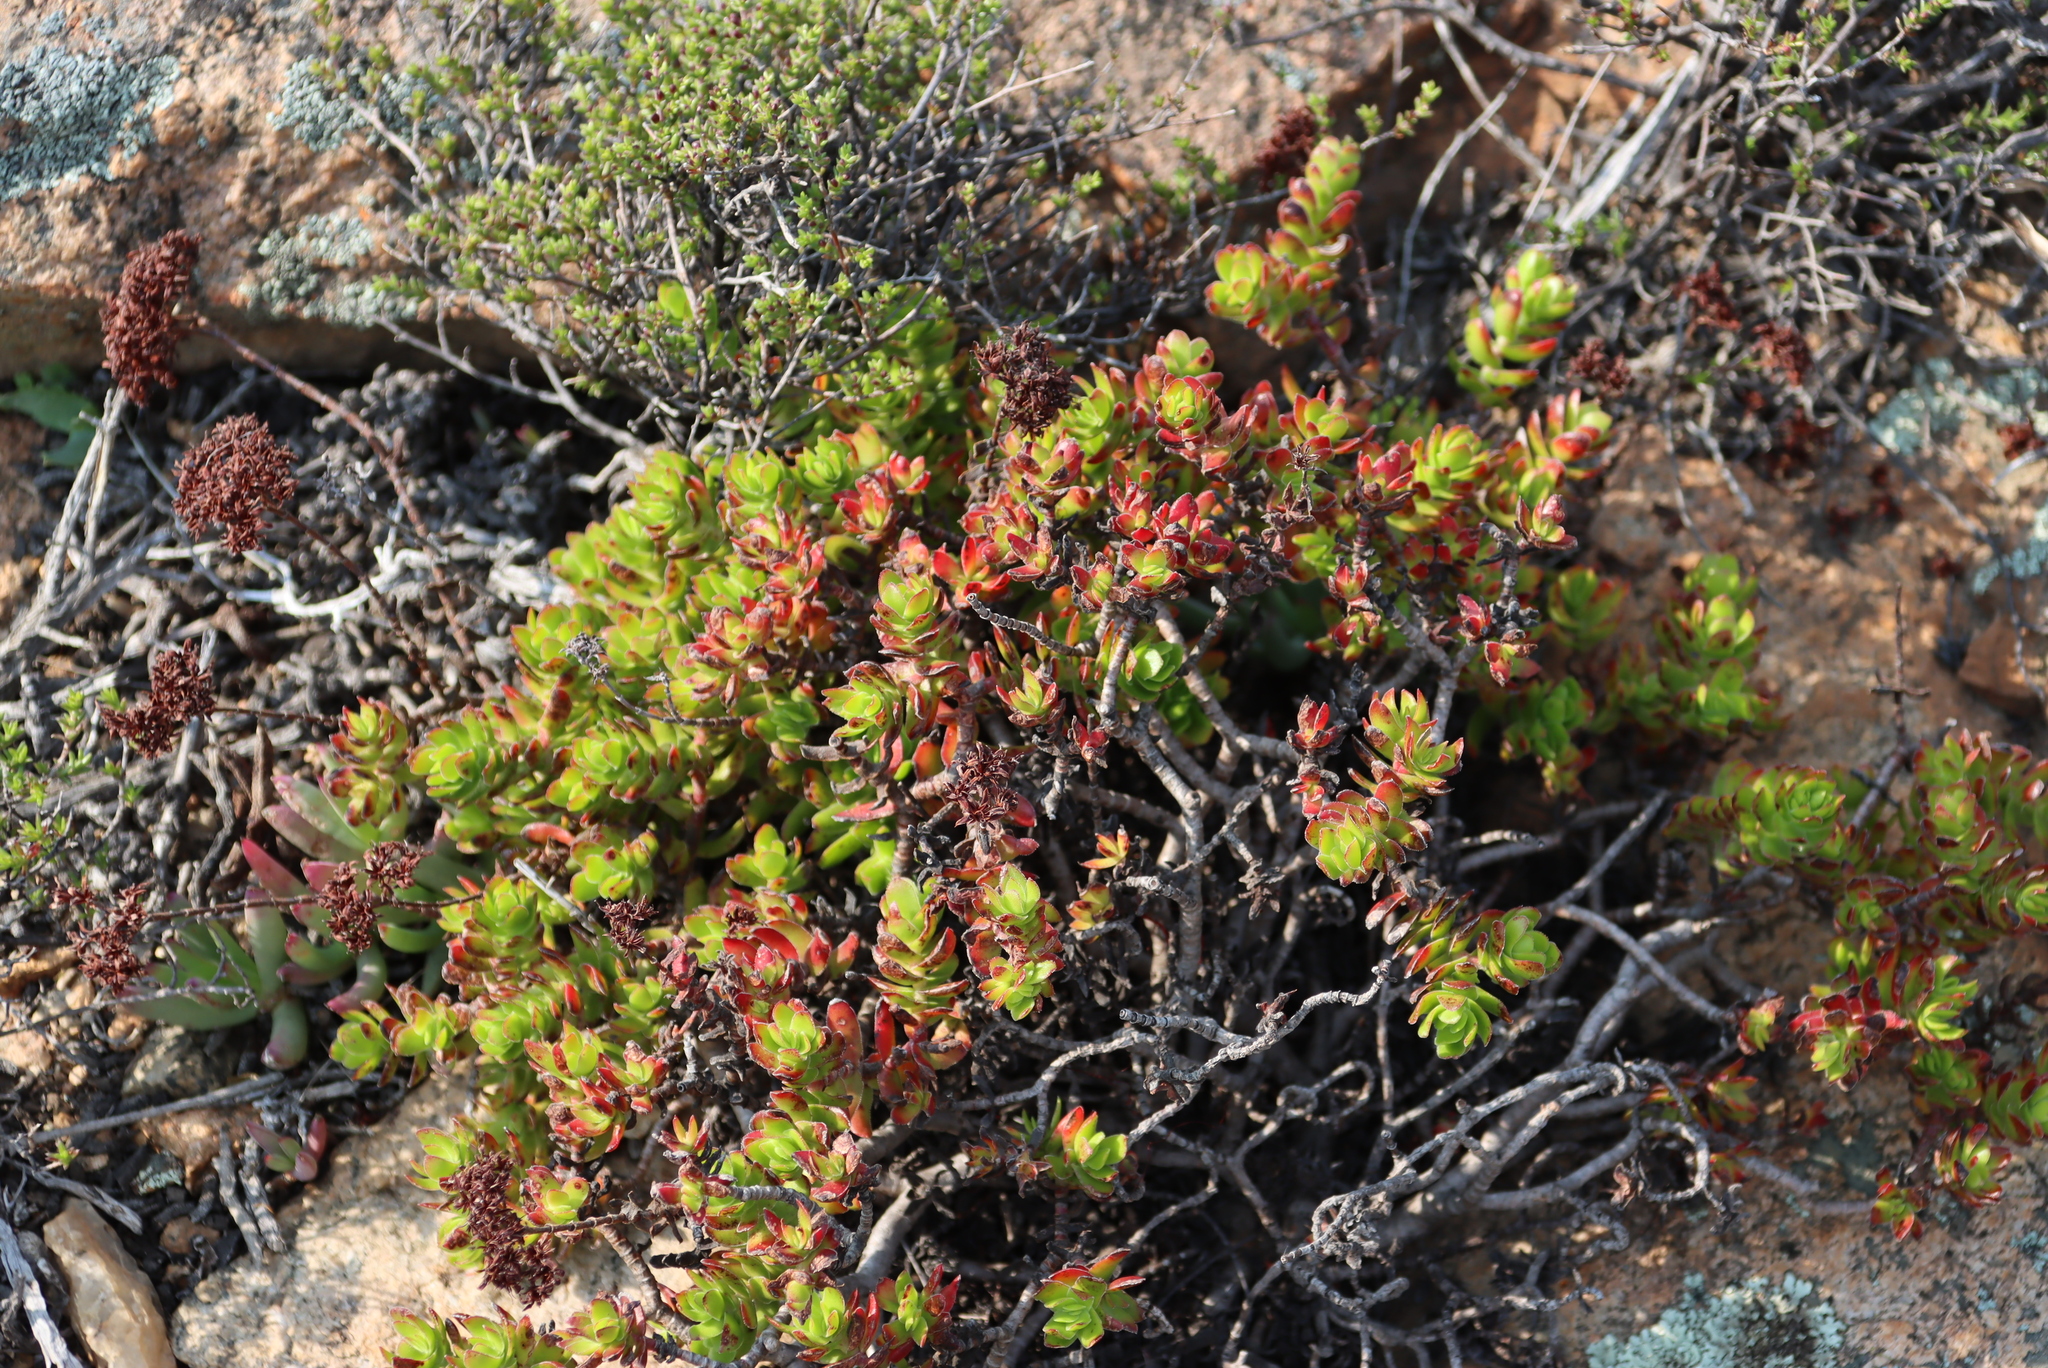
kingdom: Plantae
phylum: Tracheophyta
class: Magnoliopsida
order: Saxifragales
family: Crassulaceae
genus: Crassula
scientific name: Crassula undulata
